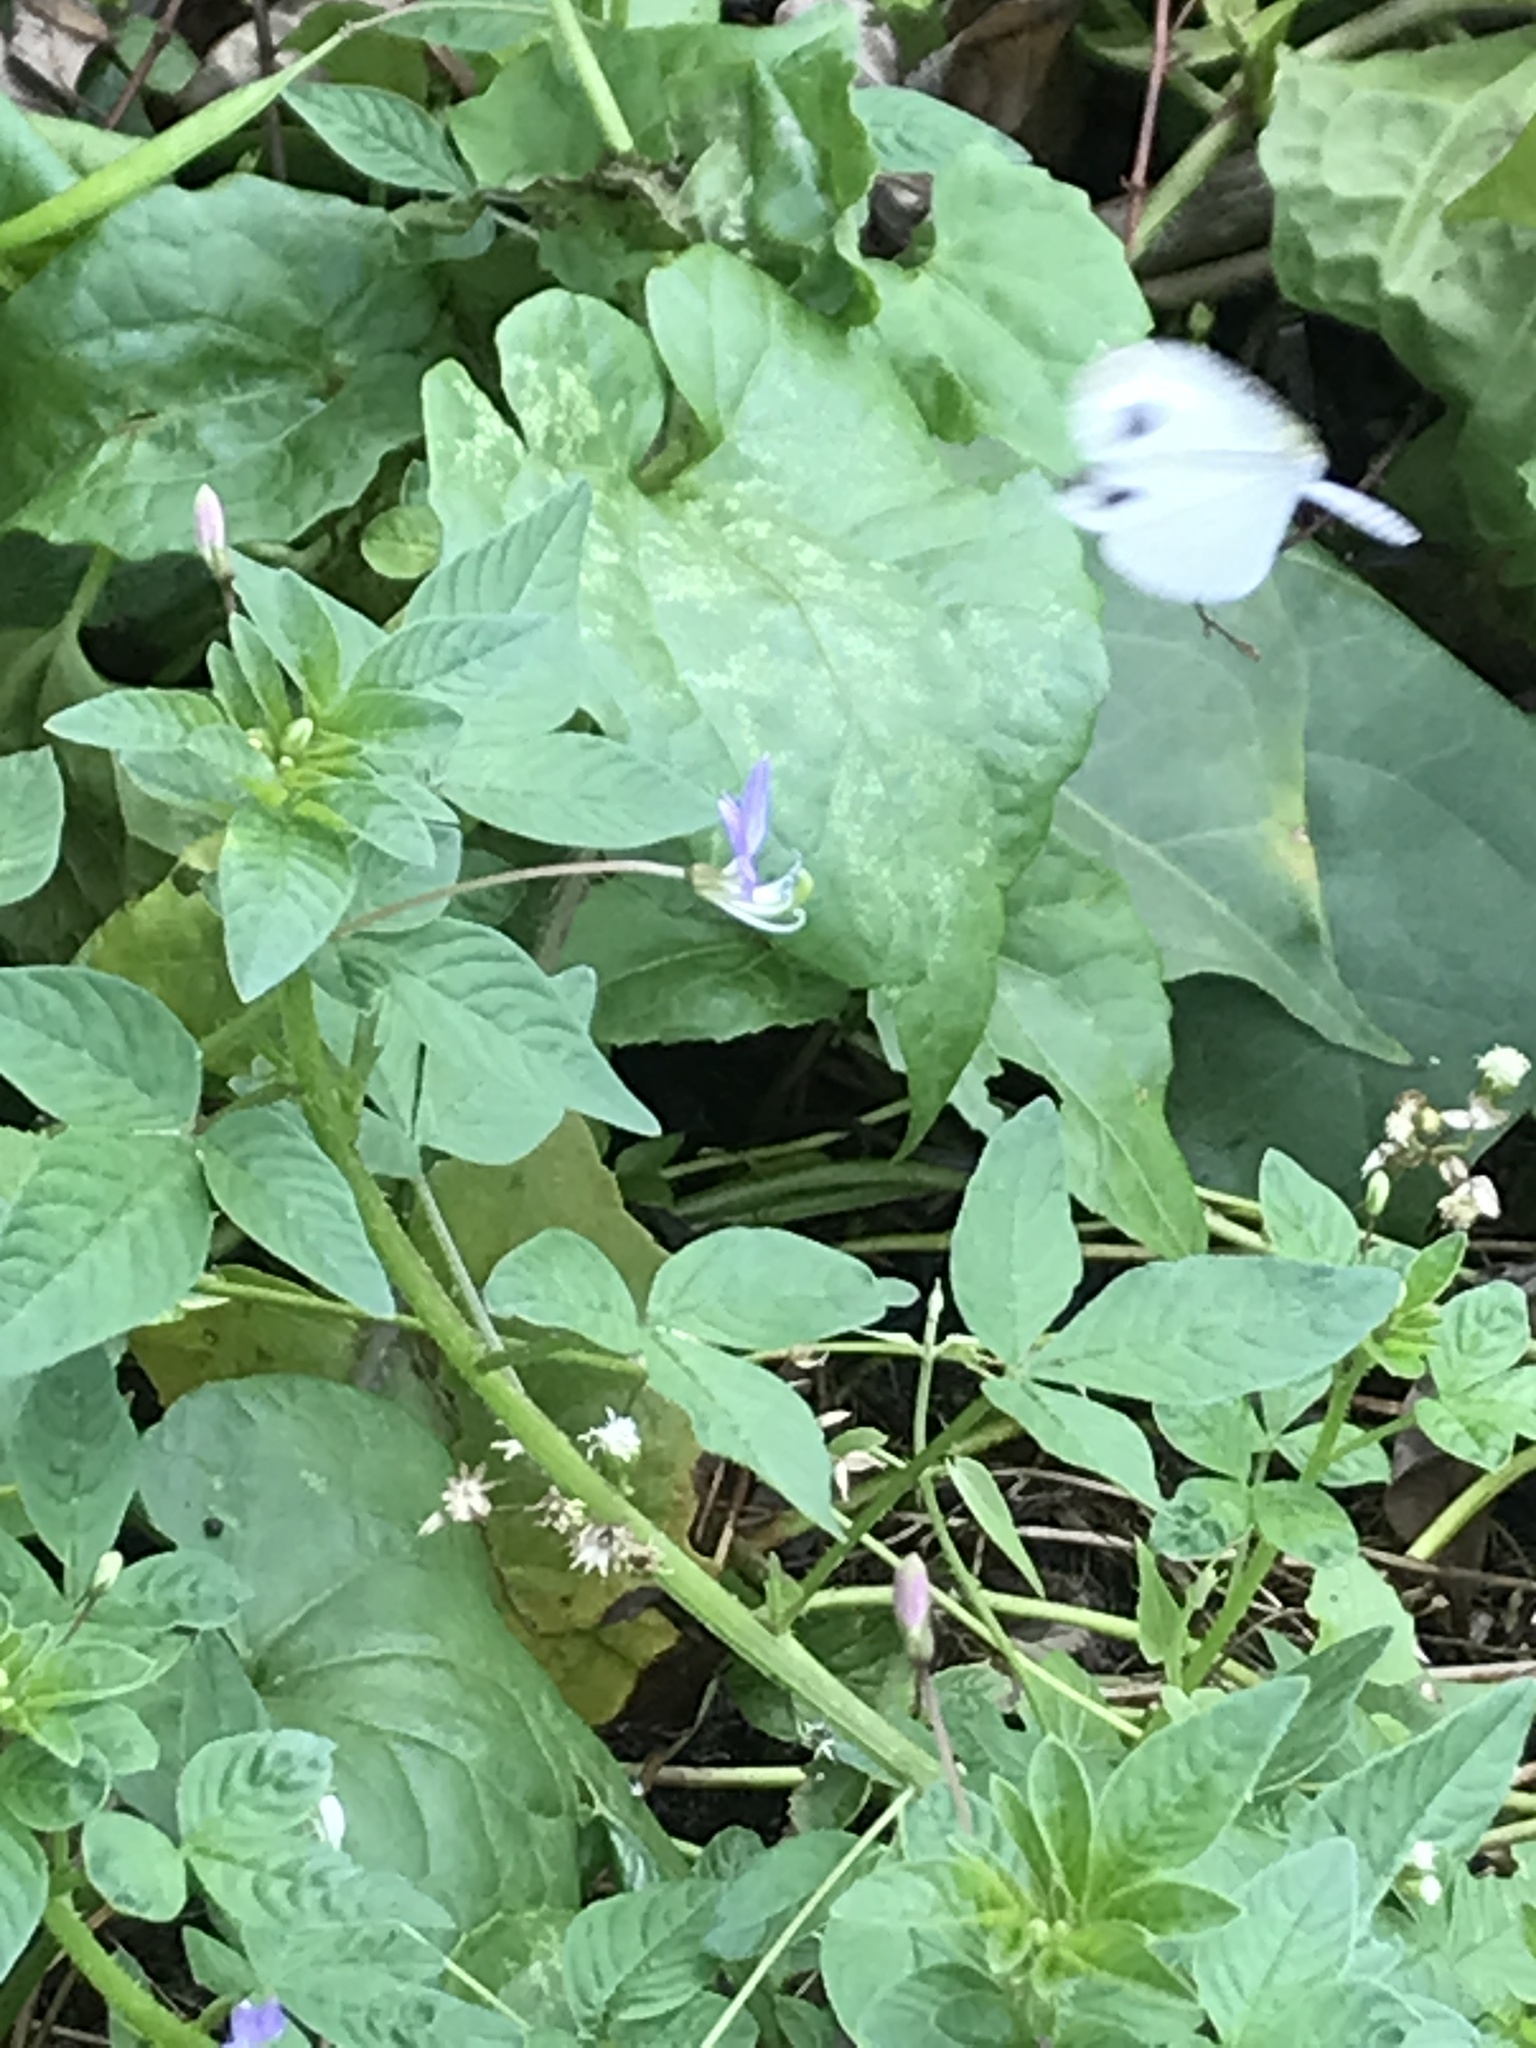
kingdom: Animalia
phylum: Arthropoda
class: Insecta
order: Lepidoptera
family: Pieridae
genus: Leptosia
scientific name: Leptosia nina
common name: Psyche
